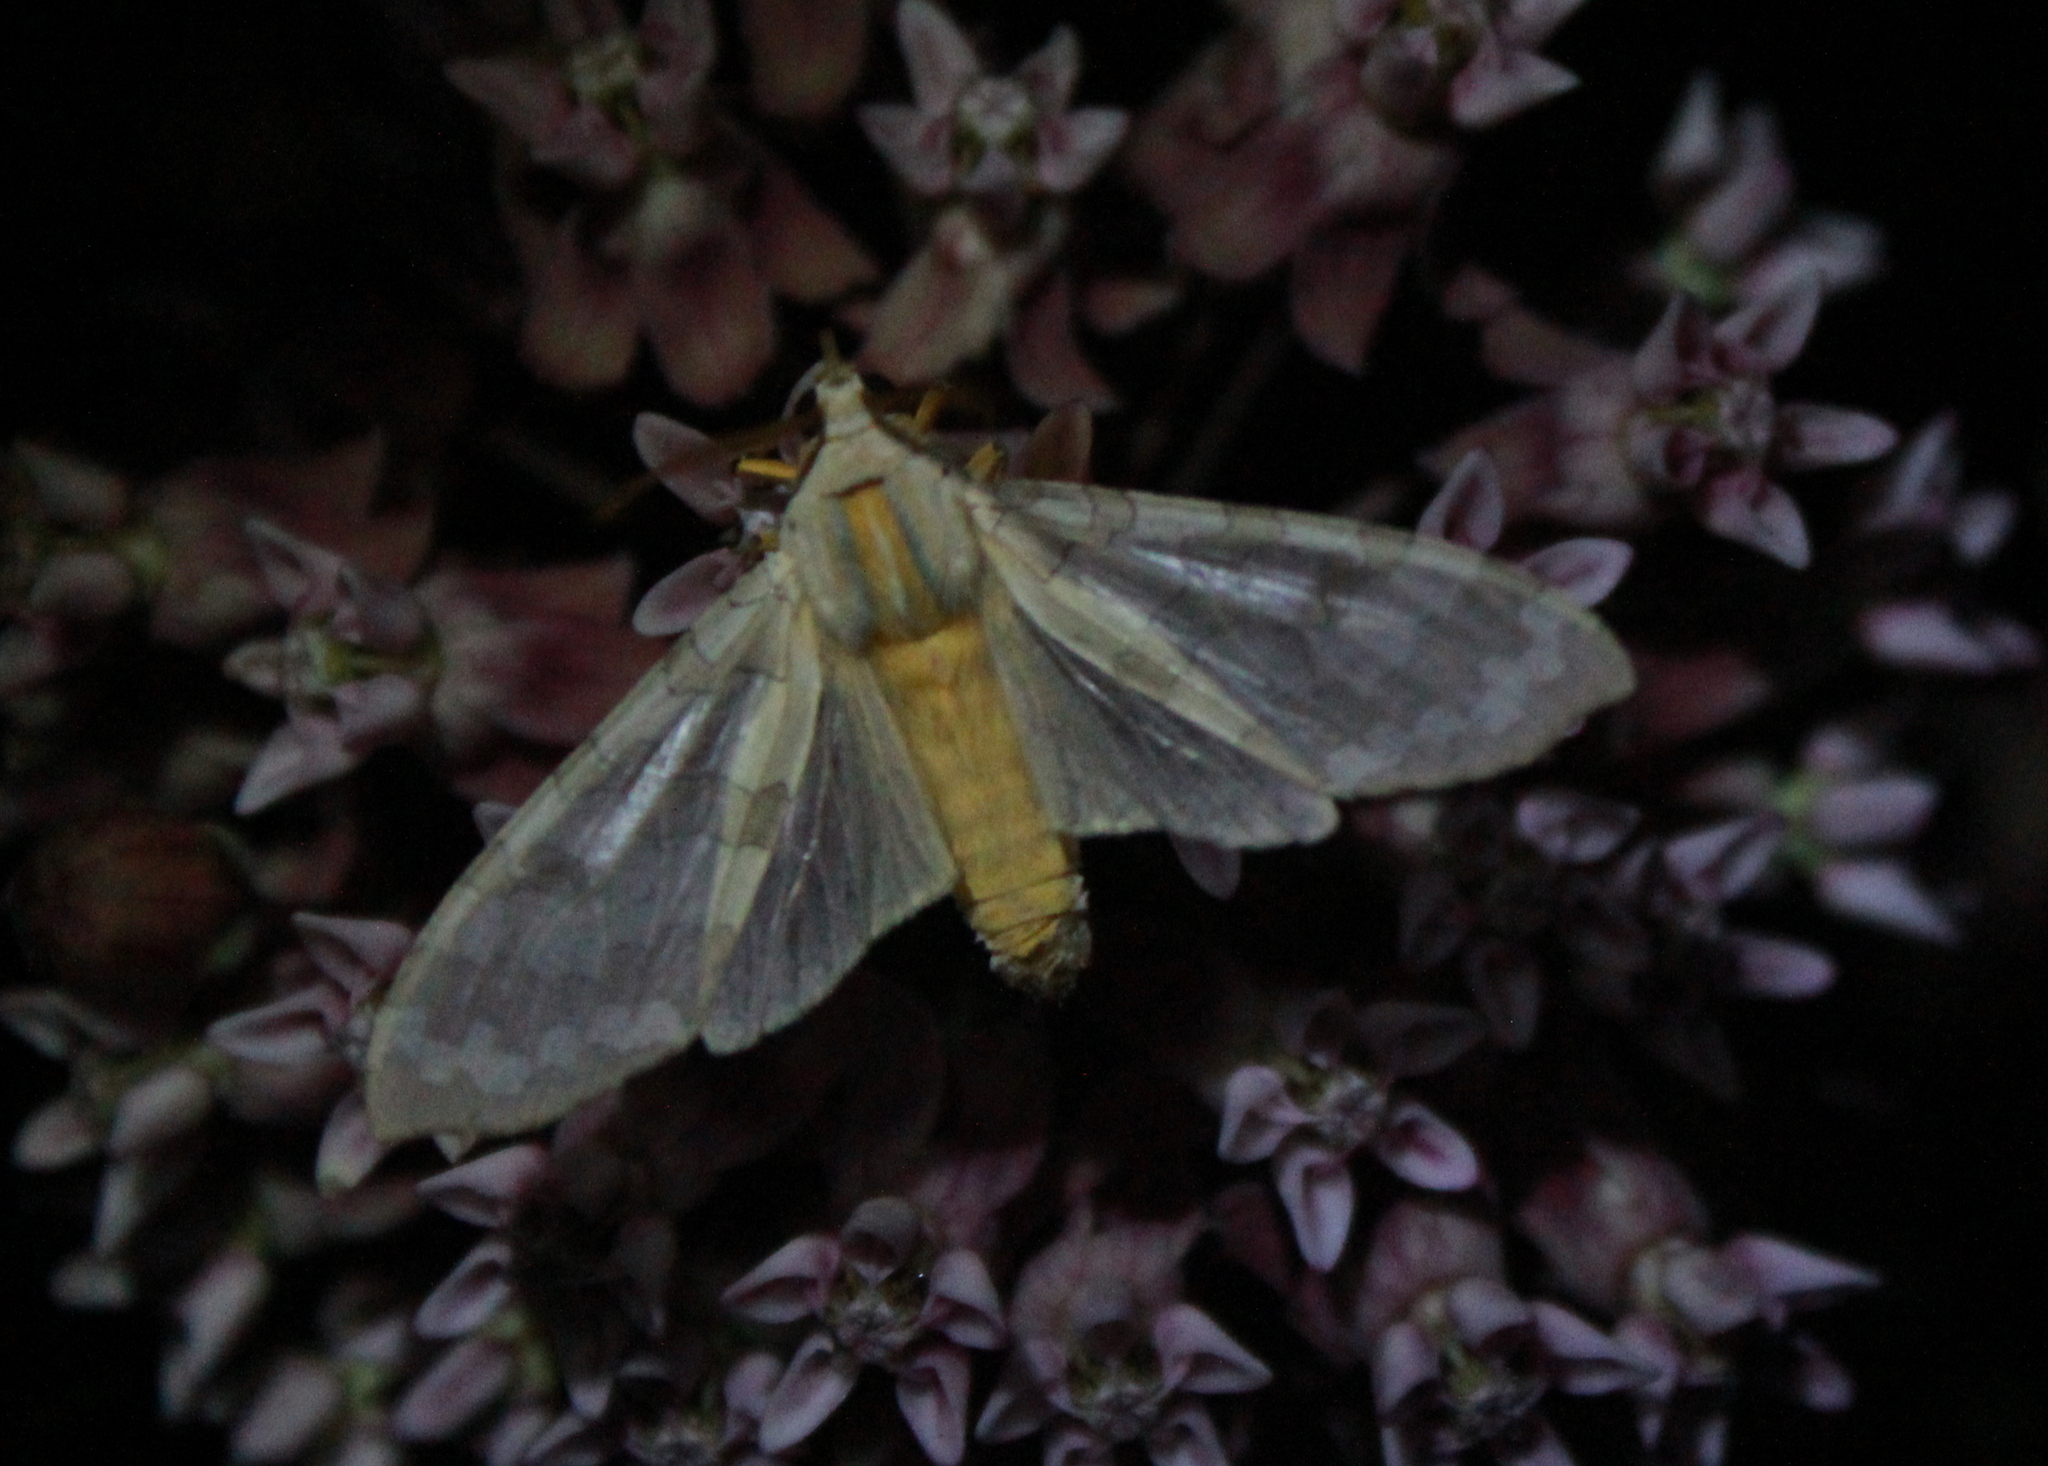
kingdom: Animalia
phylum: Arthropoda
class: Insecta
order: Lepidoptera
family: Erebidae
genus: Halysidota
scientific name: Halysidota
